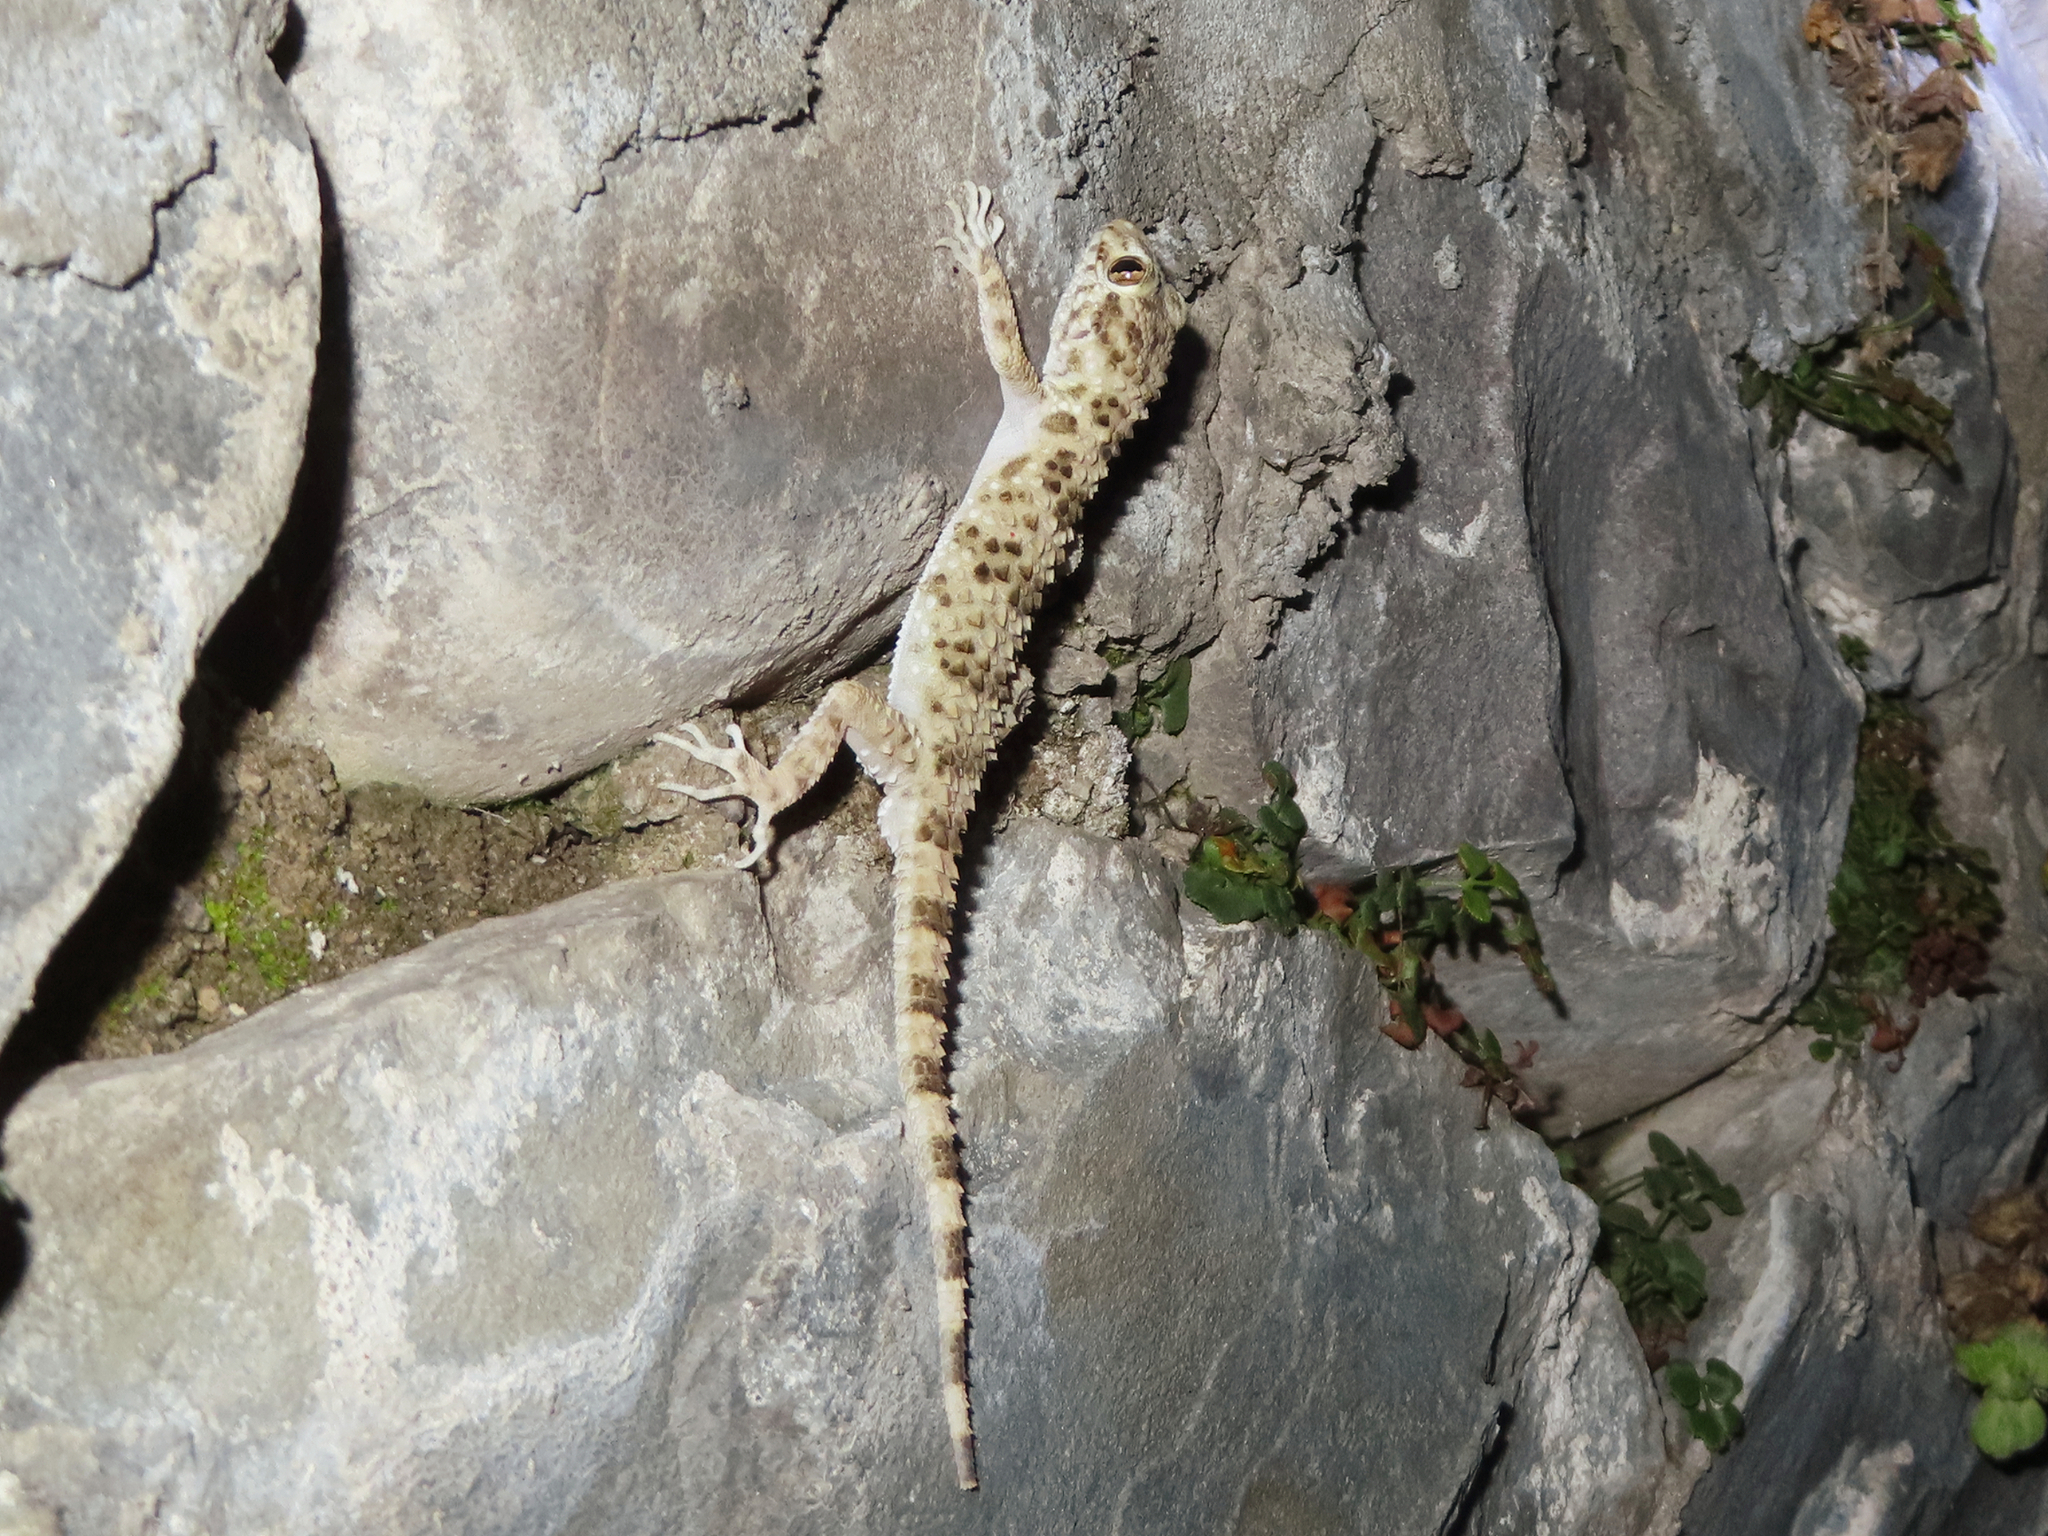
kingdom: Animalia
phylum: Chordata
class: Squamata
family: Gekkonidae
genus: Tenuidactylus
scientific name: Tenuidactylus caspius
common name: Caspian bent-toed gecko
